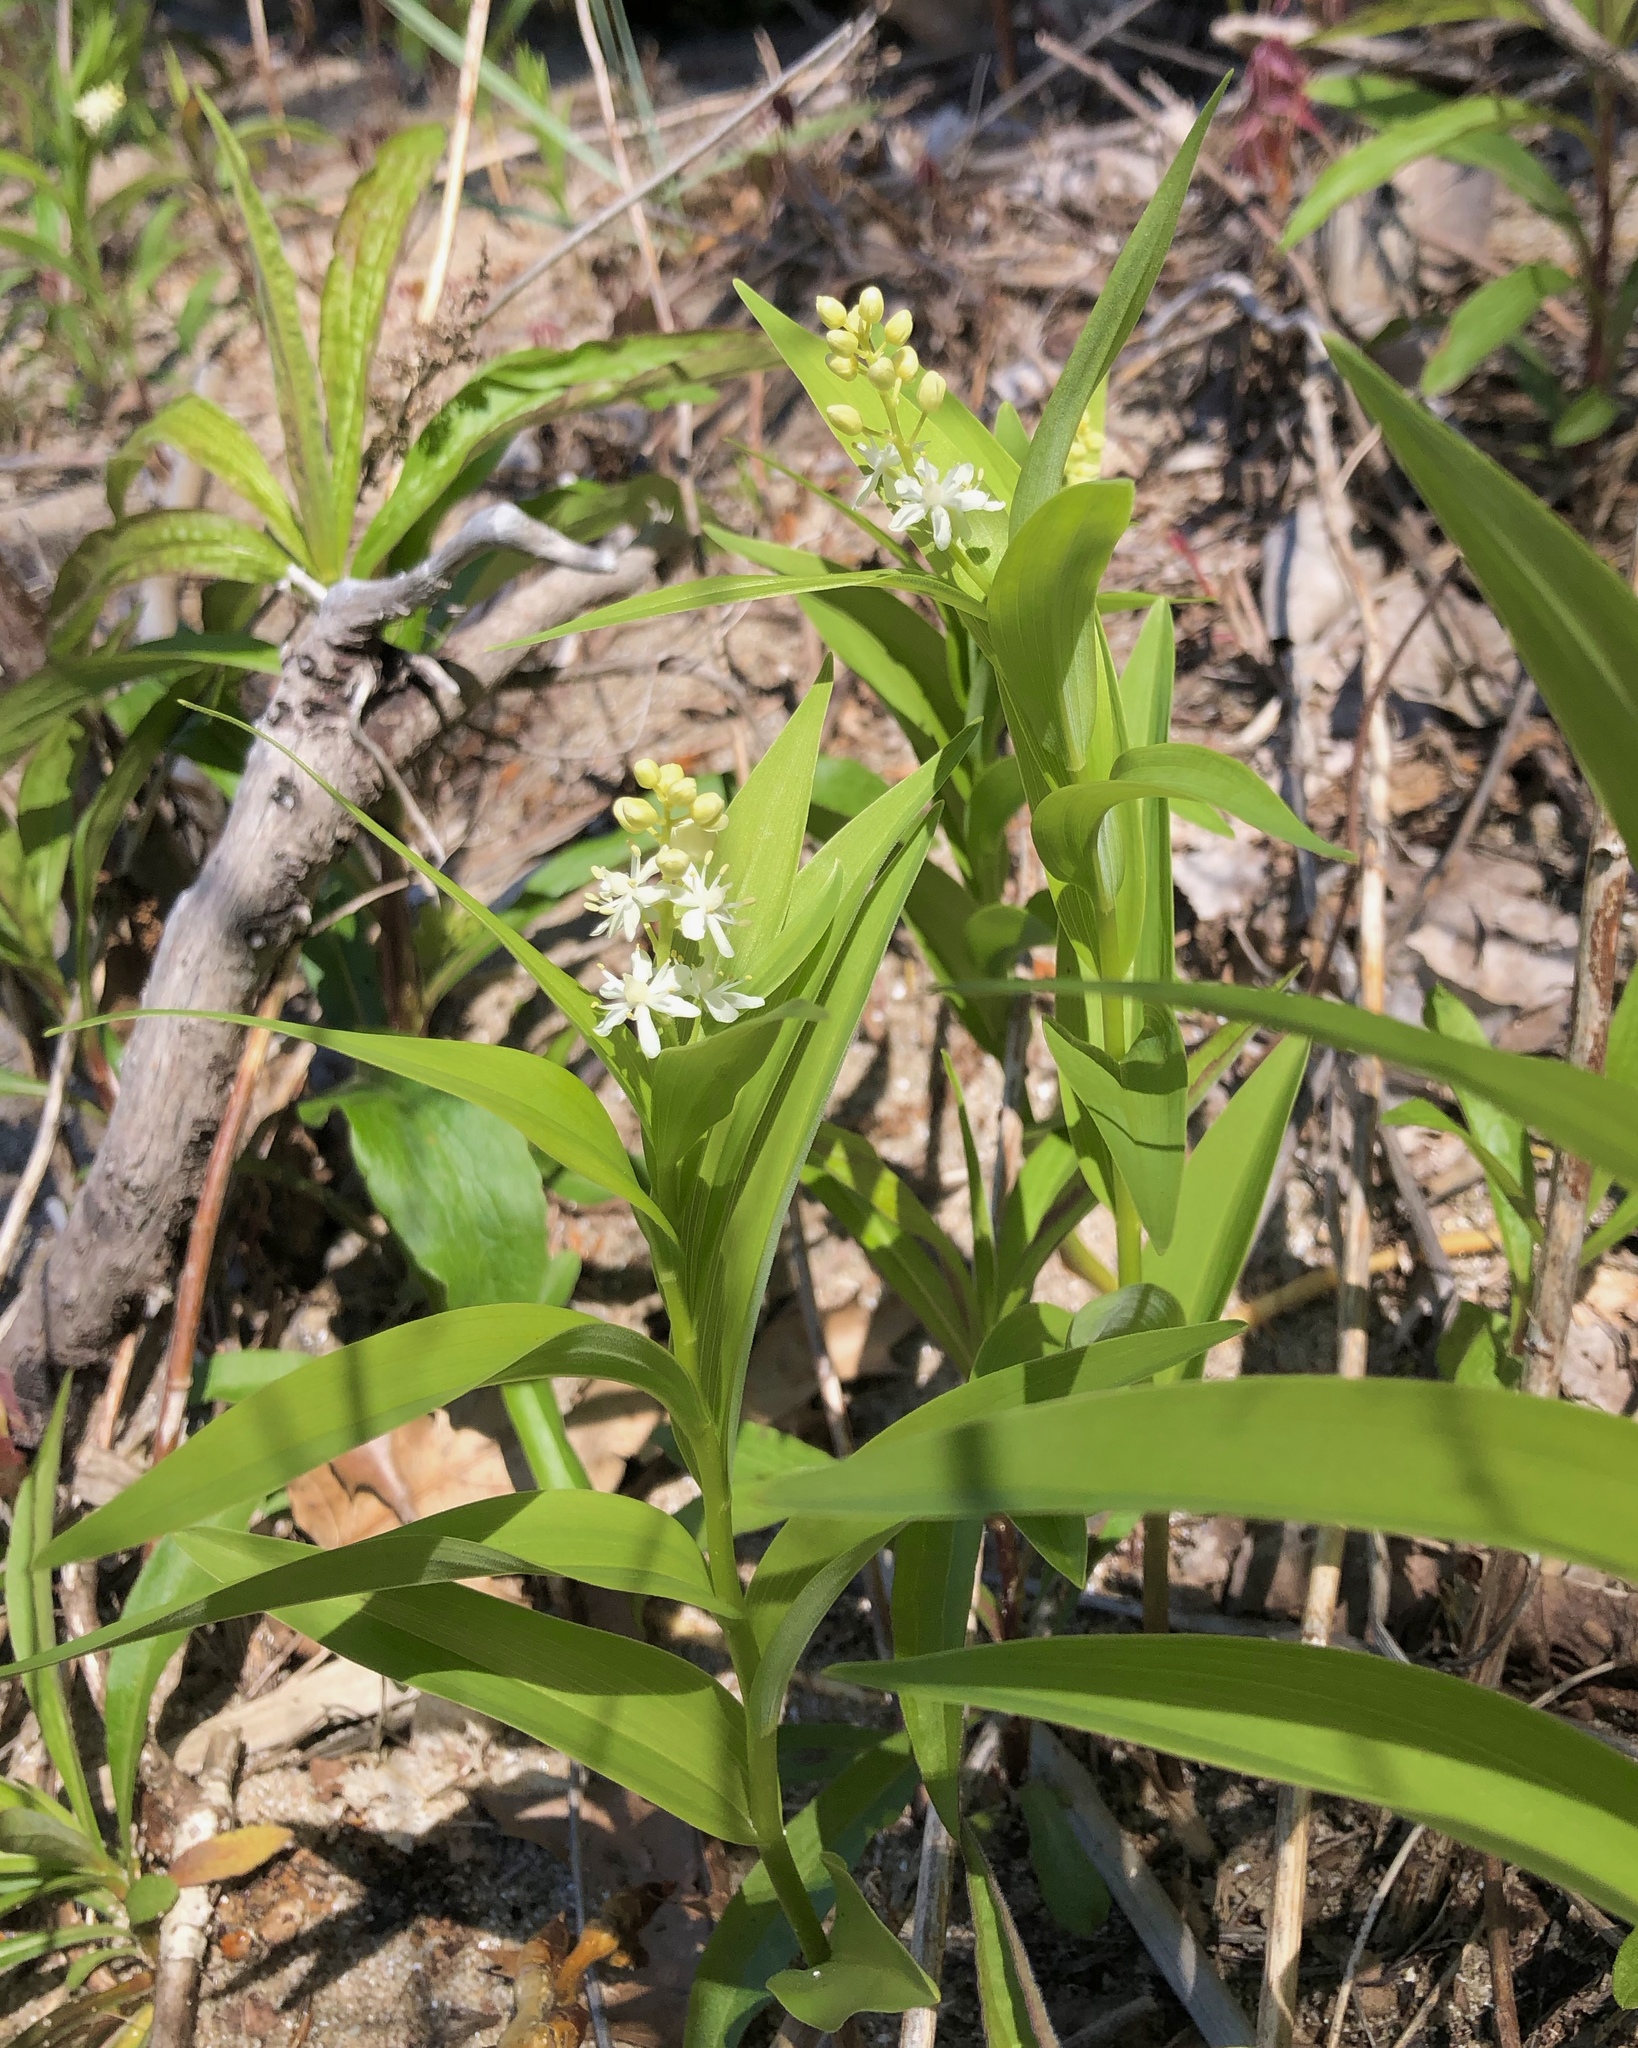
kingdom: Plantae
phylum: Tracheophyta
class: Liliopsida
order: Asparagales
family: Asparagaceae
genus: Maianthemum
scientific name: Maianthemum stellatum
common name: Little false solomon's seal
